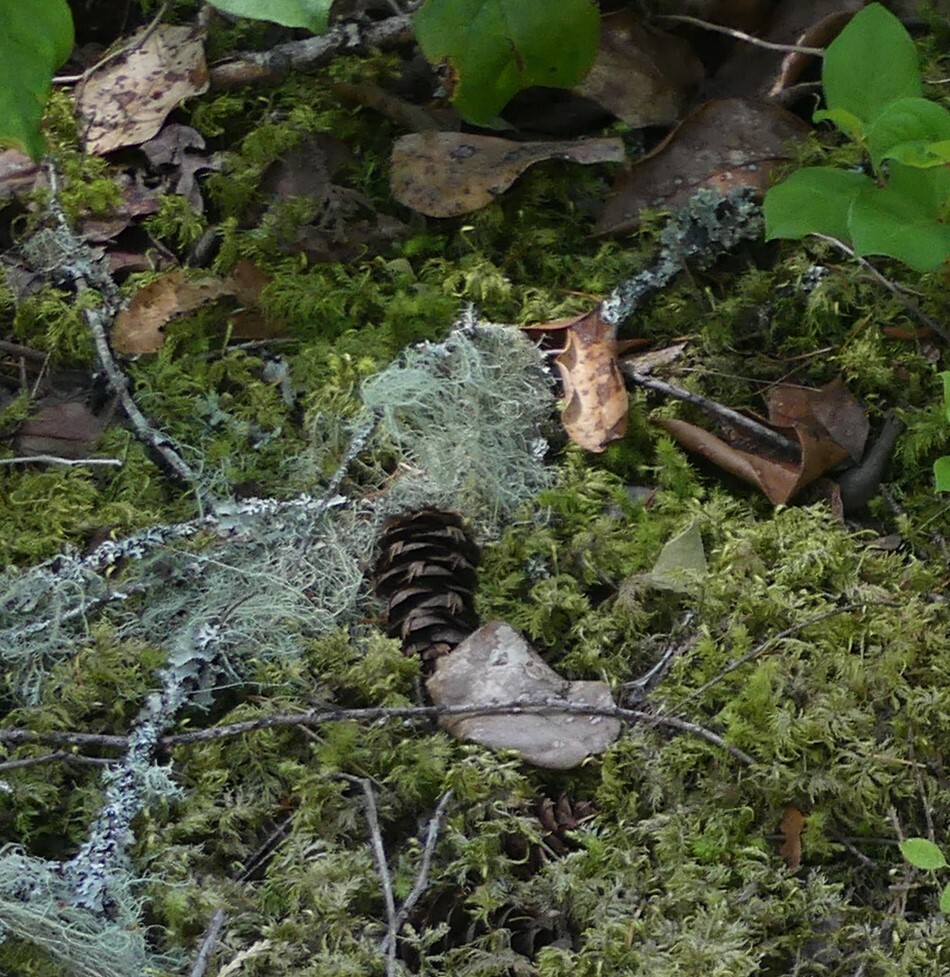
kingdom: Plantae
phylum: Tracheophyta
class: Pinopsida
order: Pinales
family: Pinaceae
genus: Pseudotsuga
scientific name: Pseudotsuga menziesii
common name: Douglas fir
